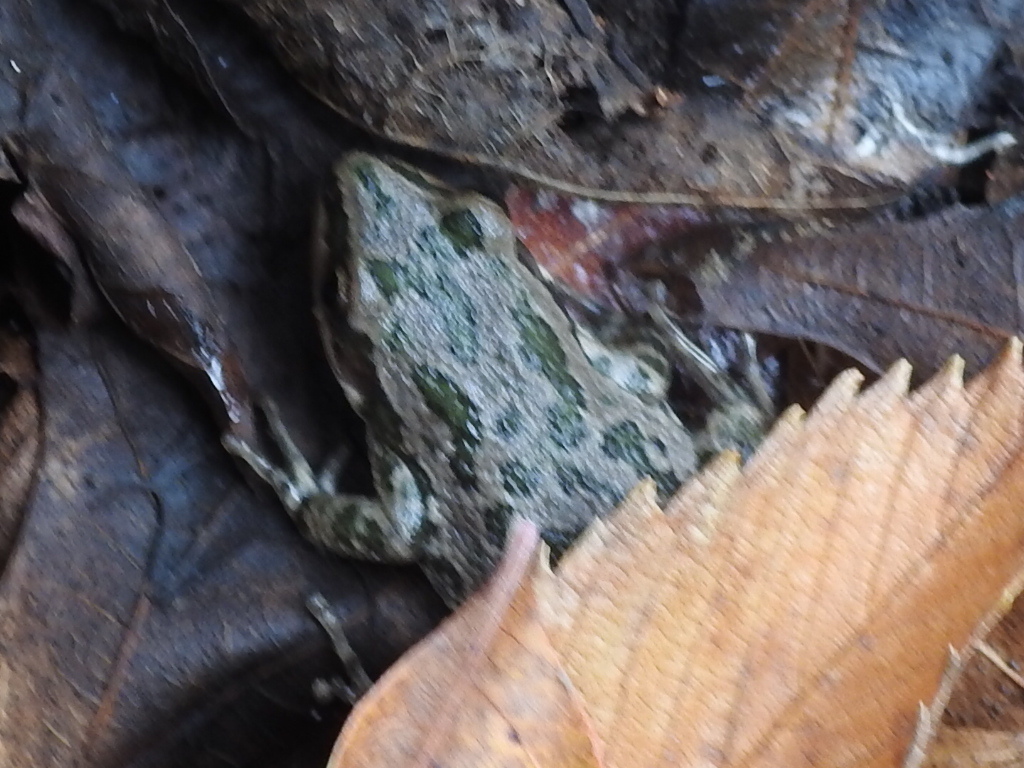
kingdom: Animalia
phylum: Chordata
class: Amphibia
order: Anura
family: Hylidae
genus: Pseudacris
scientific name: Pseudacris clarkii
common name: Spotted chorus frog
